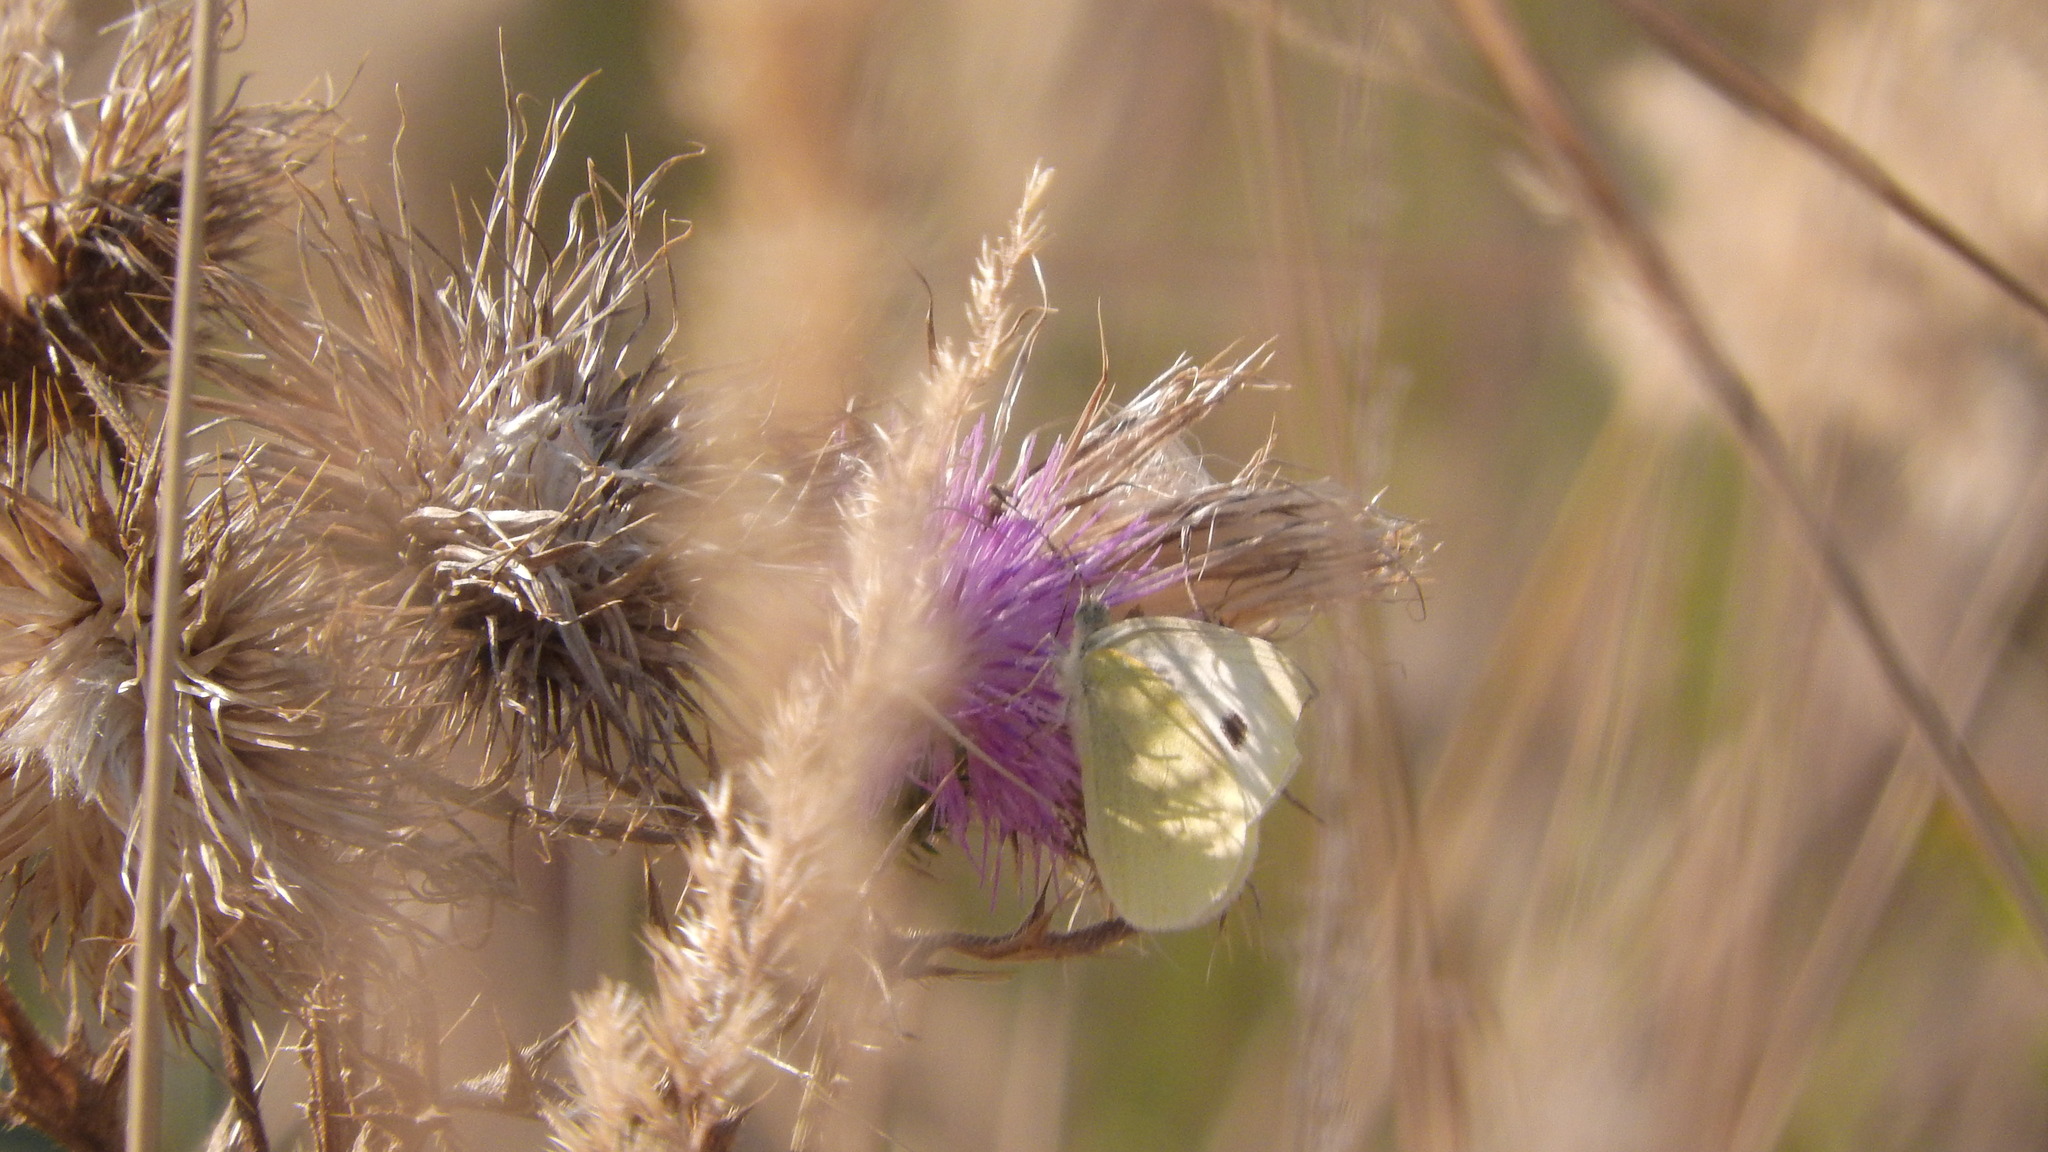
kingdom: Animalia
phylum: Arthropoda
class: Insecta
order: Lepidoptera
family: Pieridae
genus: Pieris
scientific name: Pieris rapae
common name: Small white
